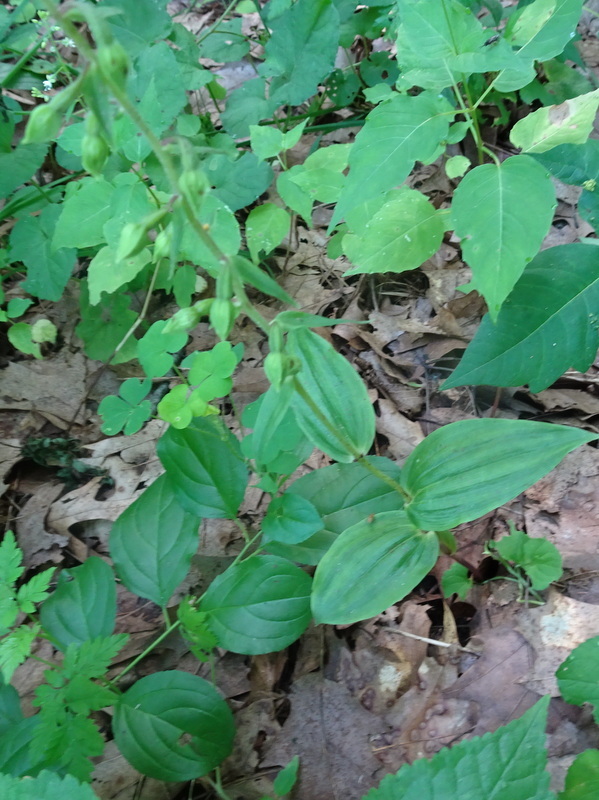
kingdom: Plantae
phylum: Tracheophyta
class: Liliopsida
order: Asparagales
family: Orchidaceae
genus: Epipactis
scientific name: Epipactis helleborine
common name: Broad-leaved helleborine
